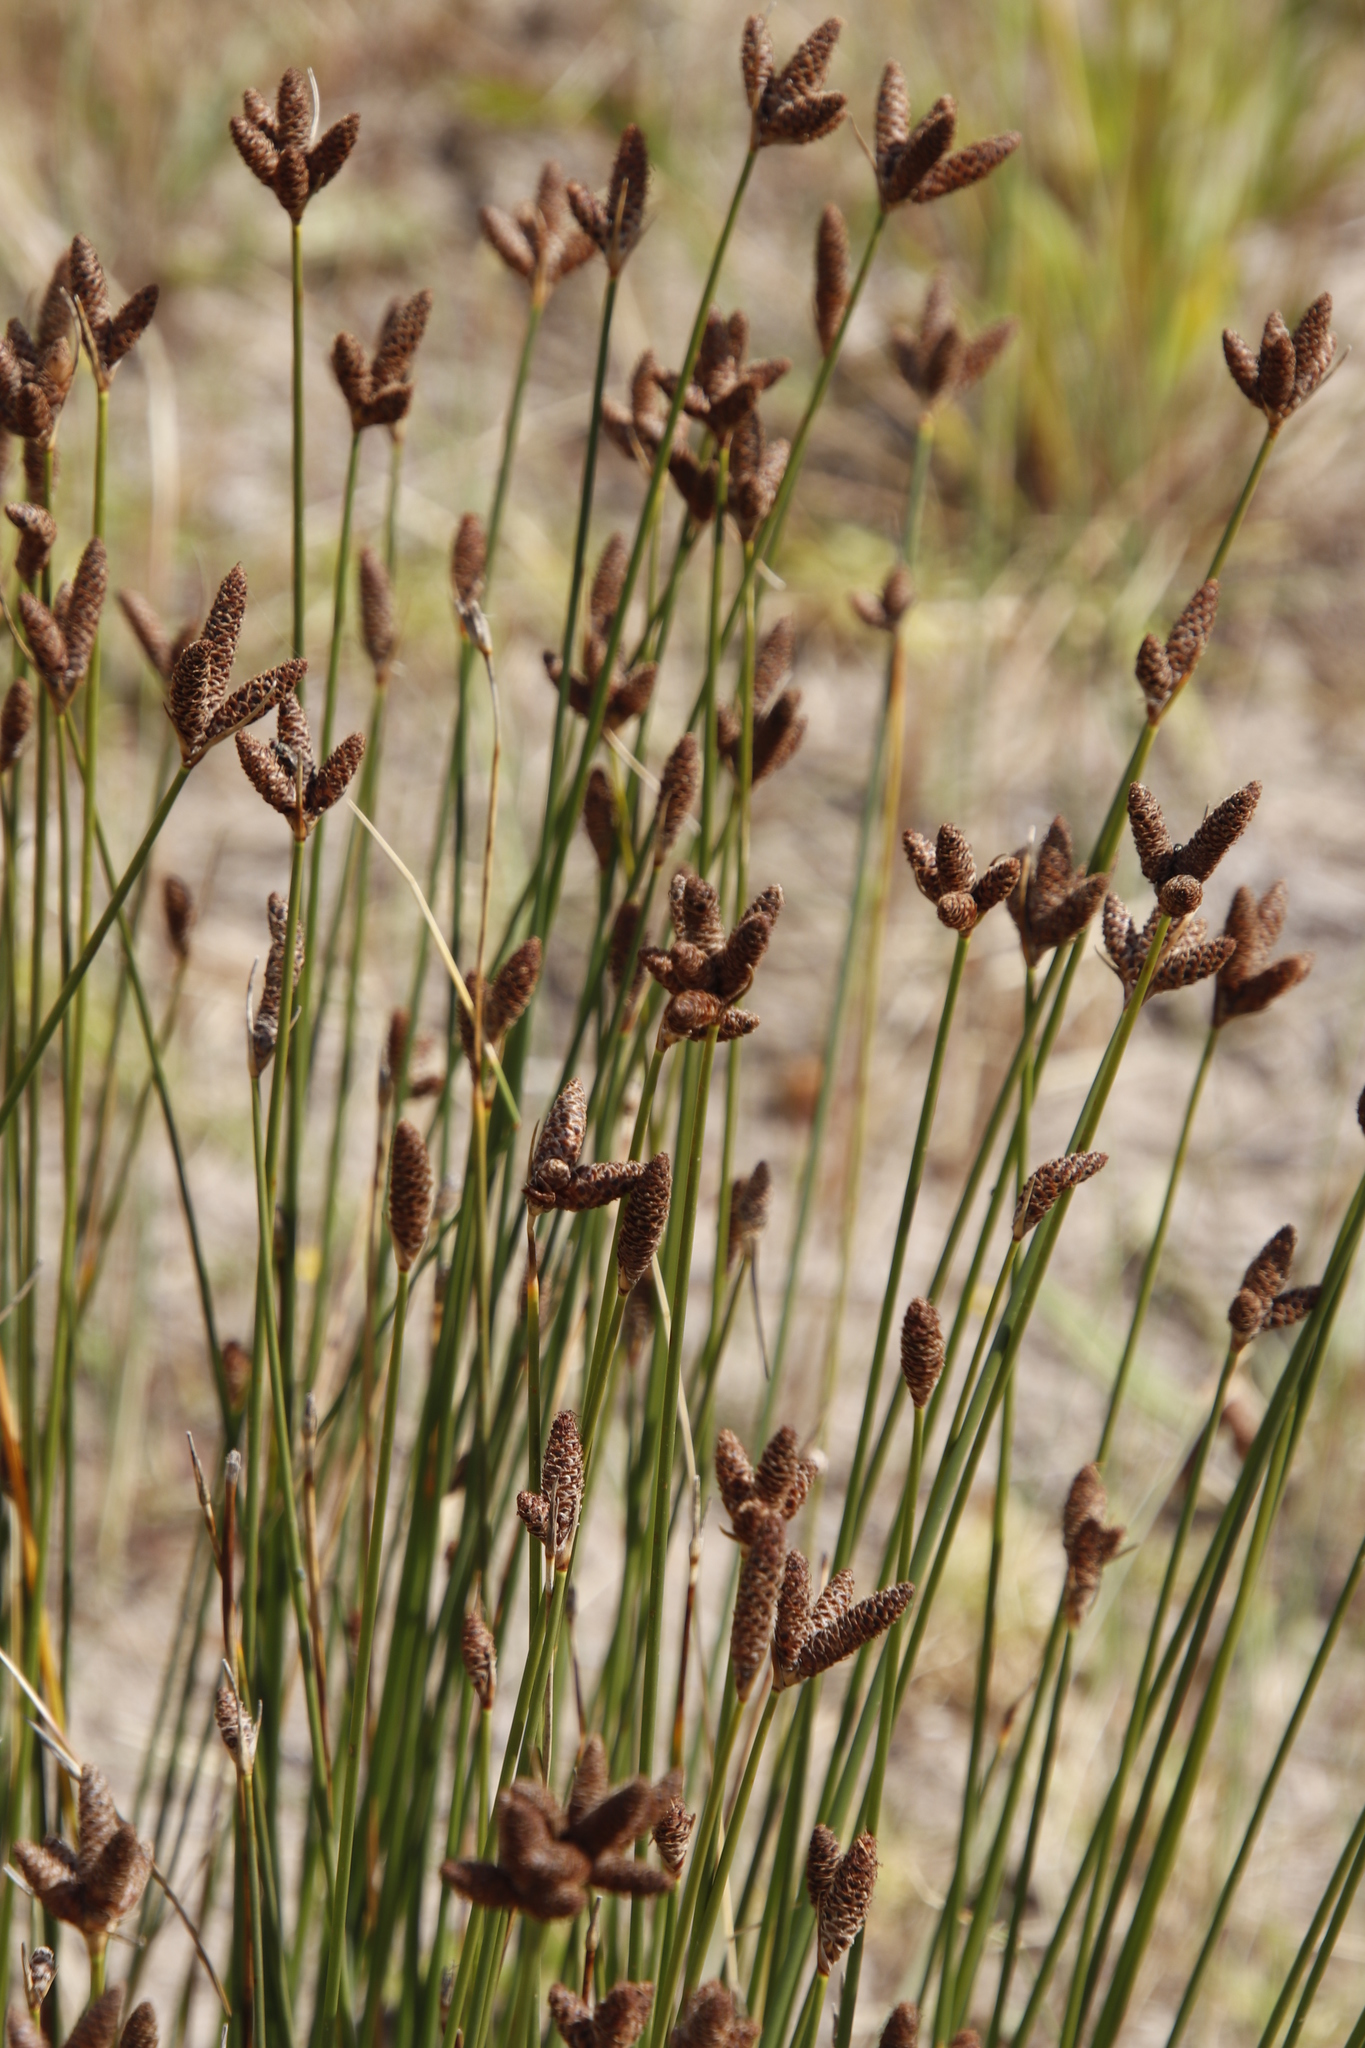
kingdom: Plantae
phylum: Tracheophyta
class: Liliopsida
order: Poales
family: Cyperaceae
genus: Hellmuthia
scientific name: Hellmuthia membranacea
